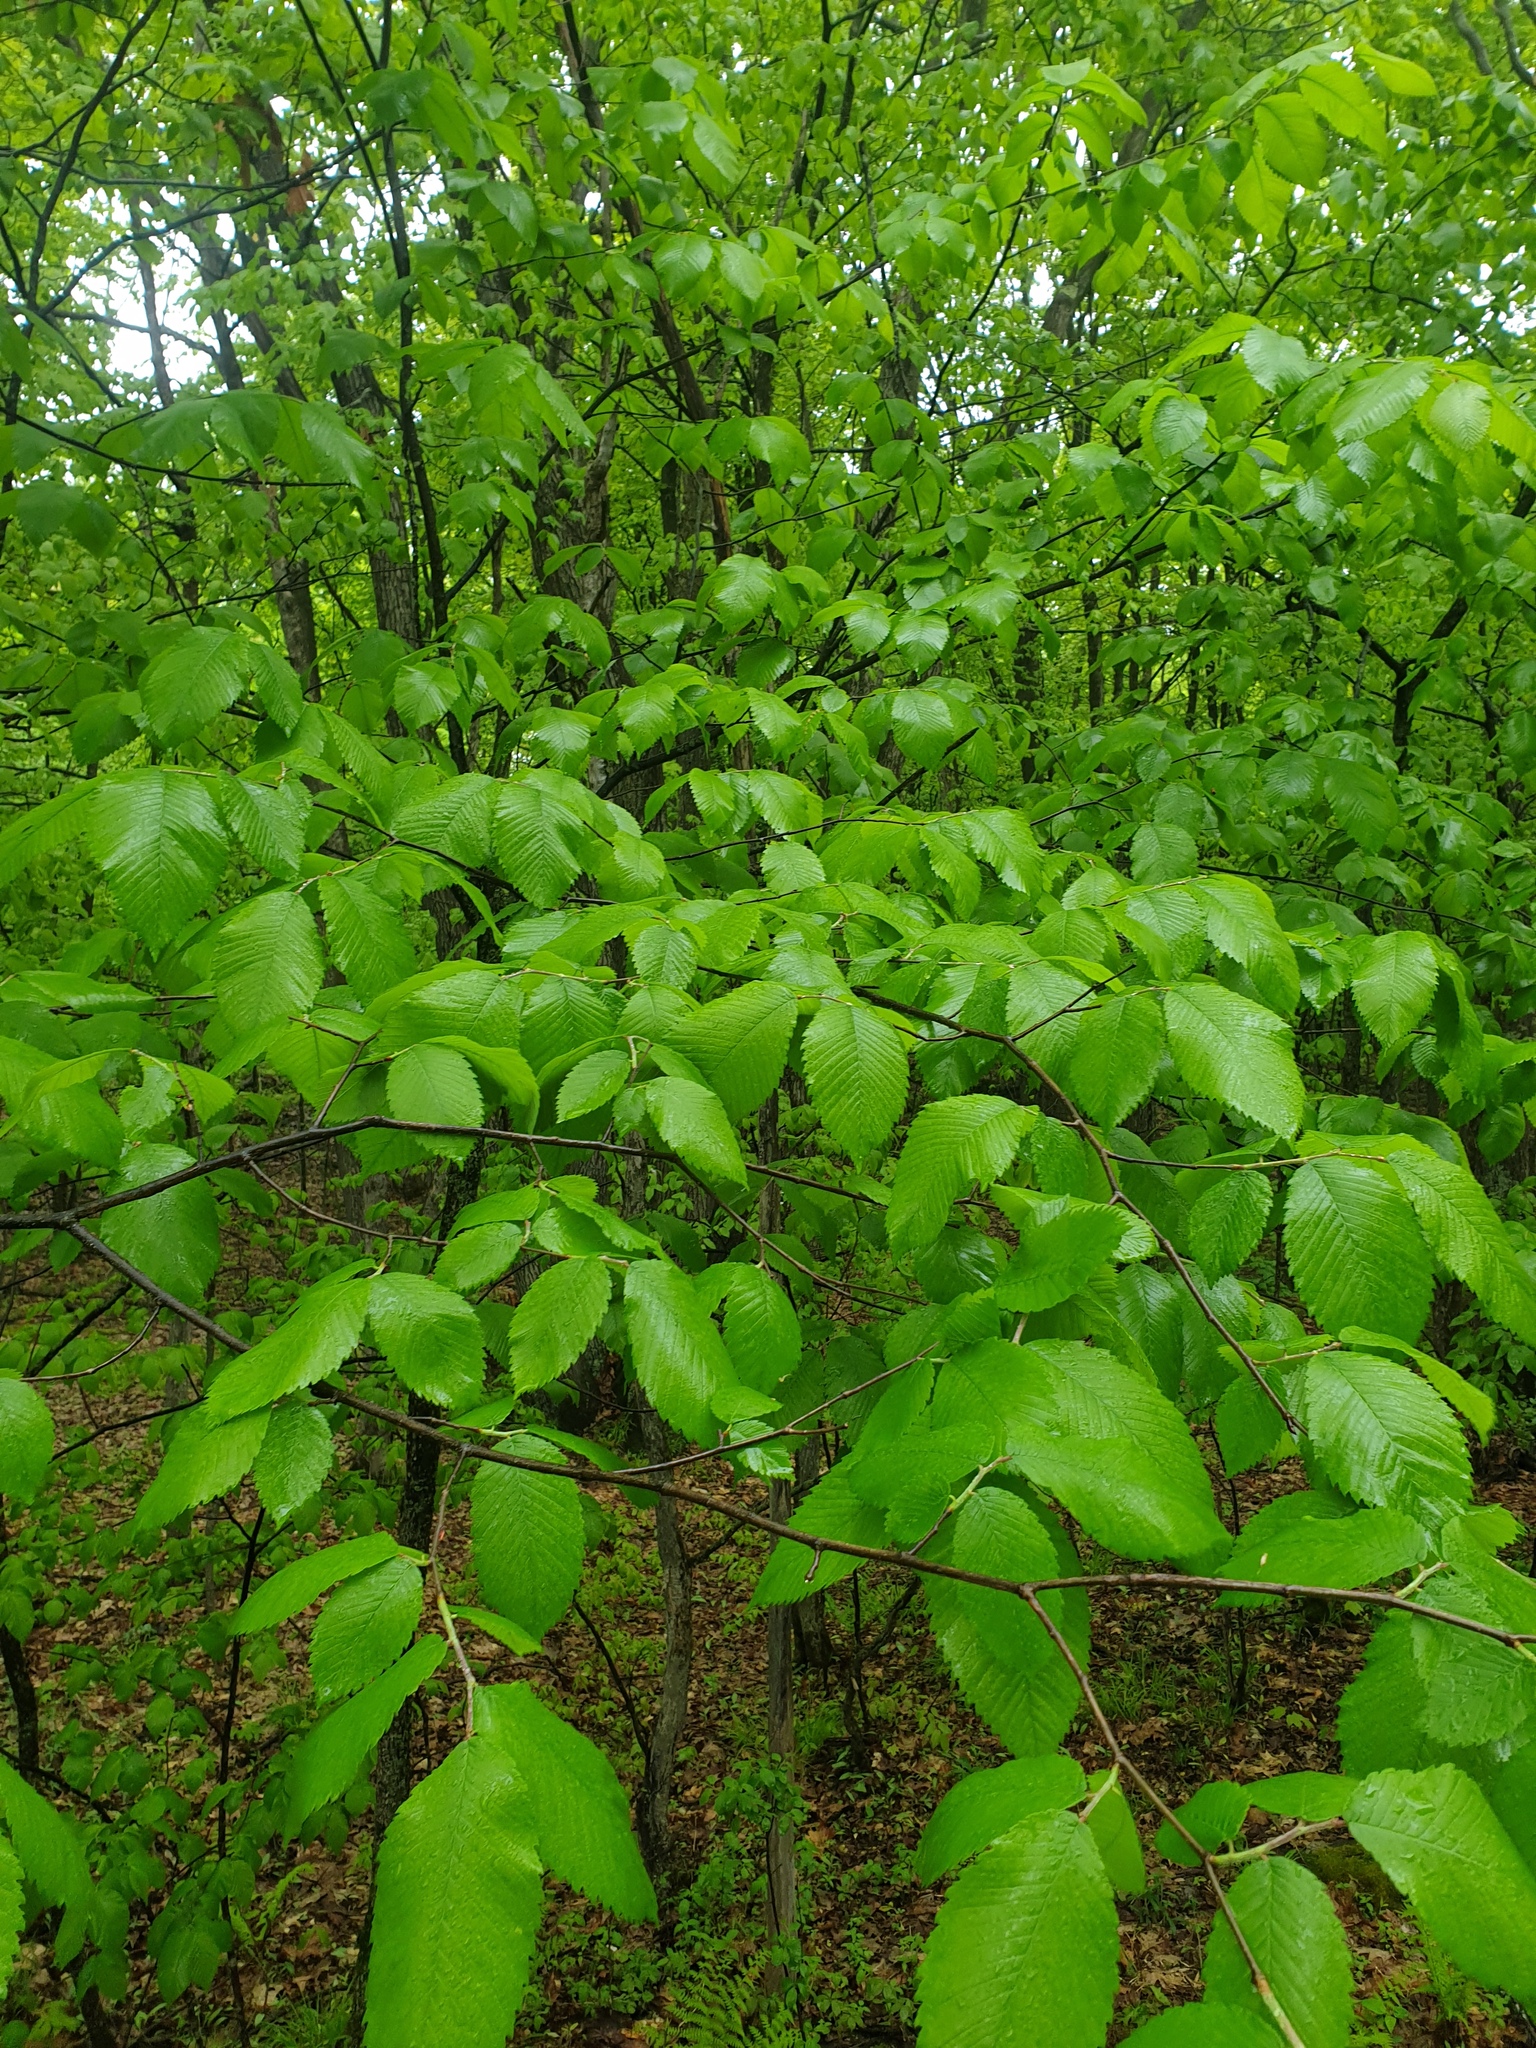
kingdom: Plantae
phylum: Tracheophyta
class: Magnoliopsida
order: Rosales
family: Ulmaceae
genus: Ulmus
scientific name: Ulmus thomasii
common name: Rock elm
